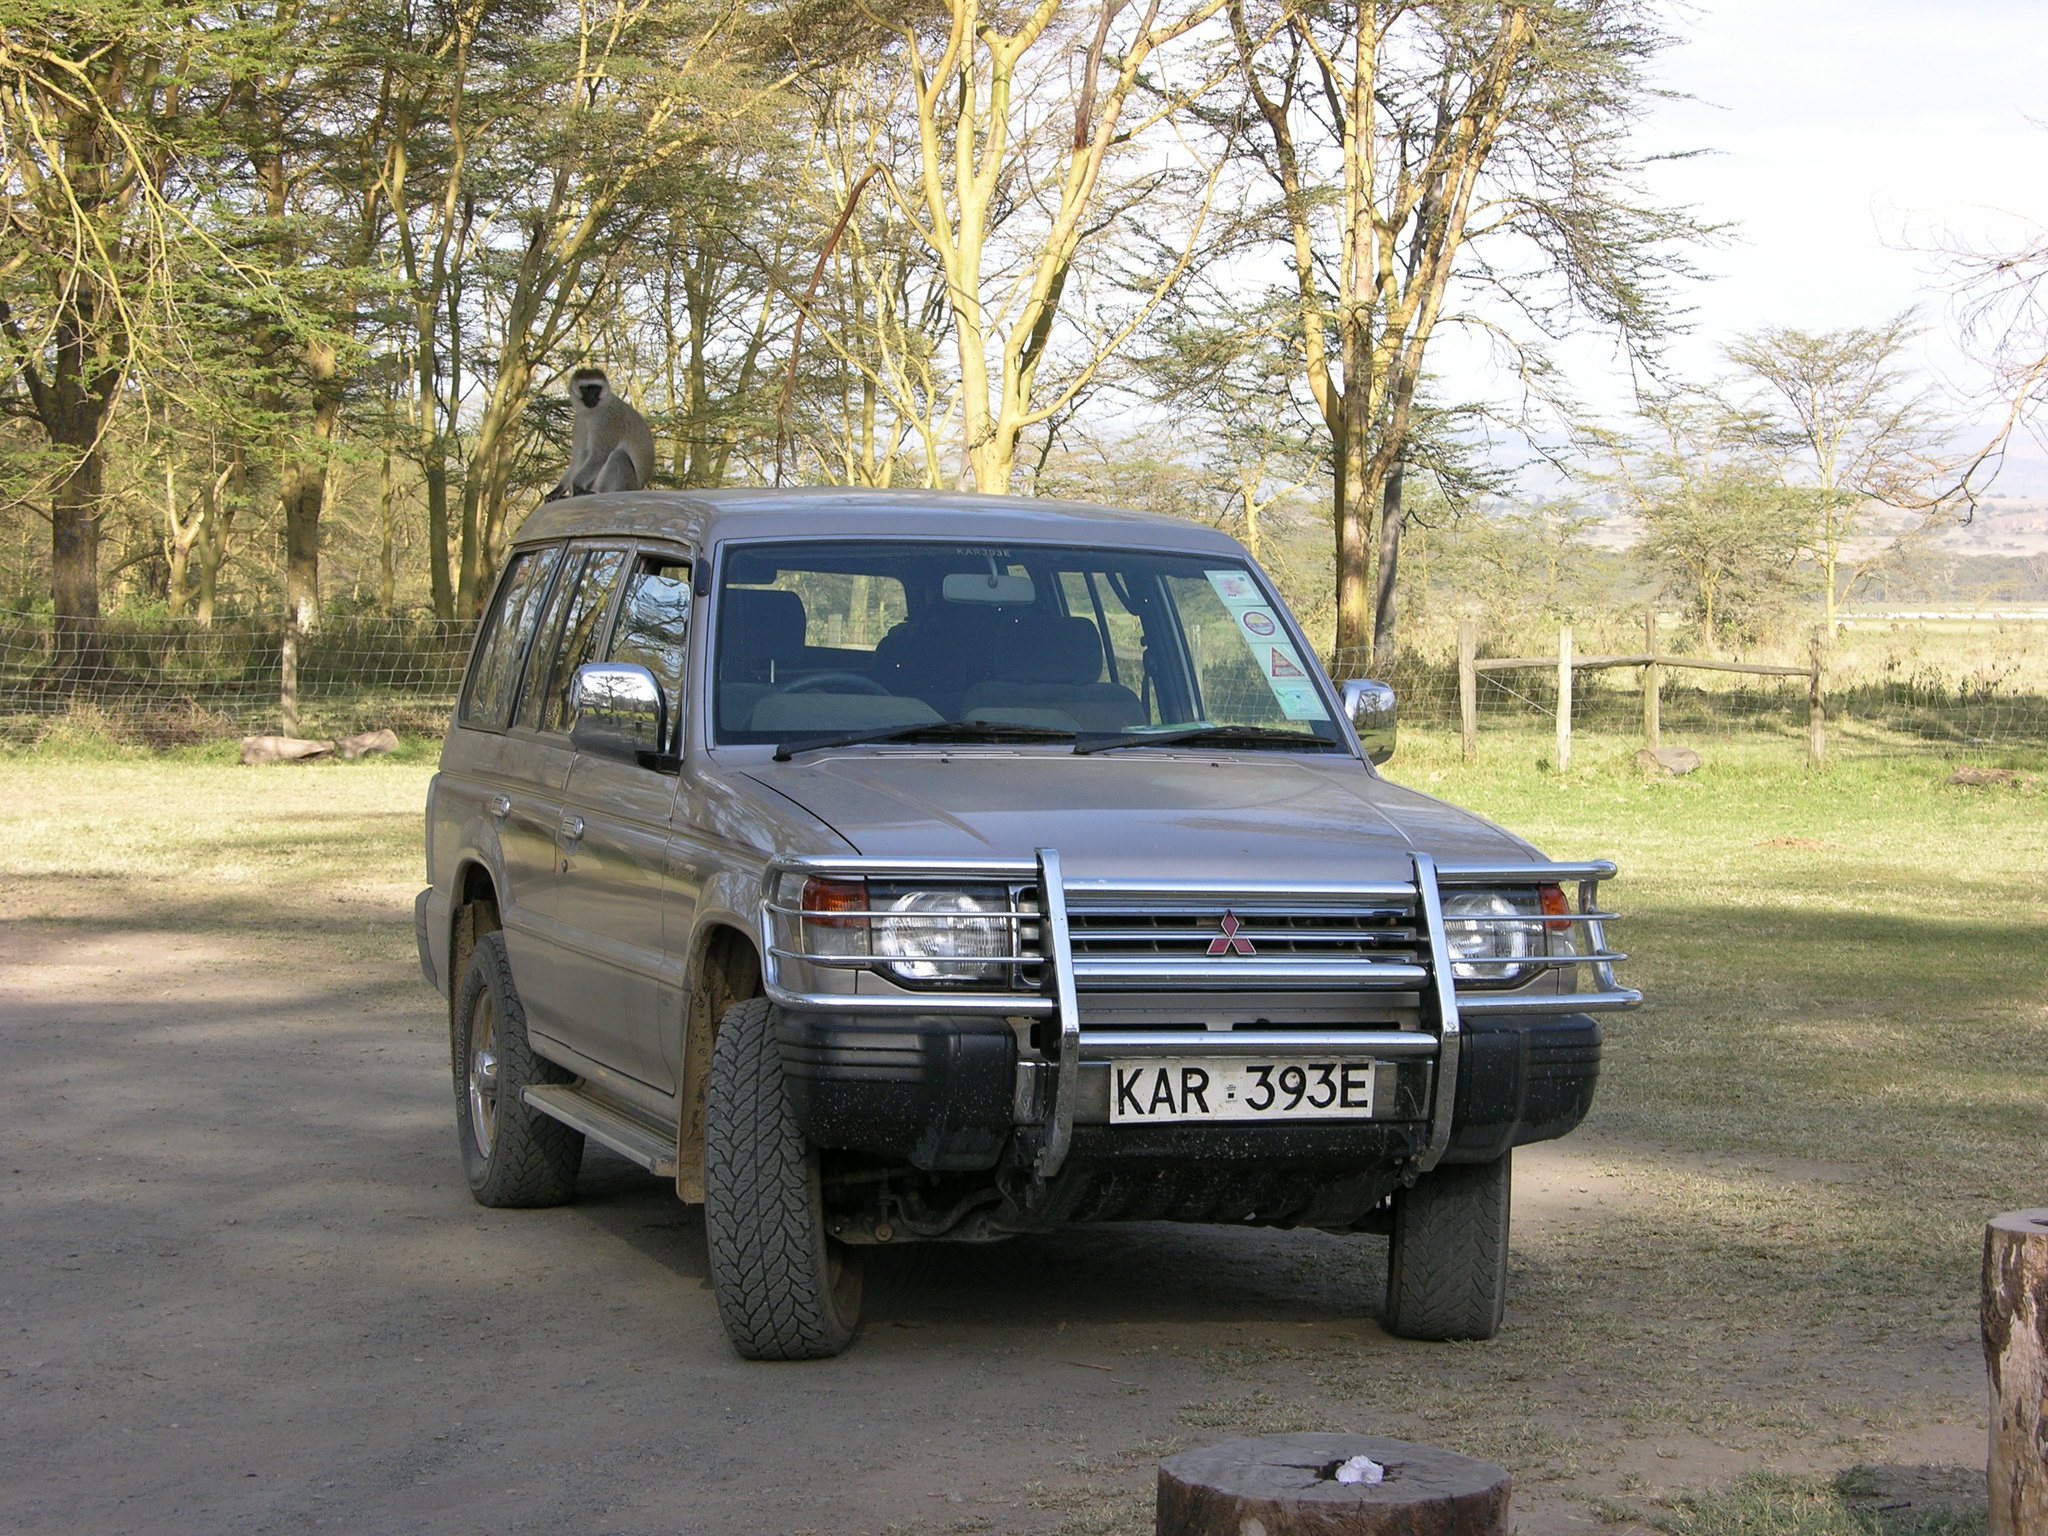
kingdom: Animalia
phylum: Chordata
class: Mammalia
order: Primates
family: Cercopithecidae
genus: Chlorocebus
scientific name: Chlorocebus pygerythrus
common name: Vervet monkey
